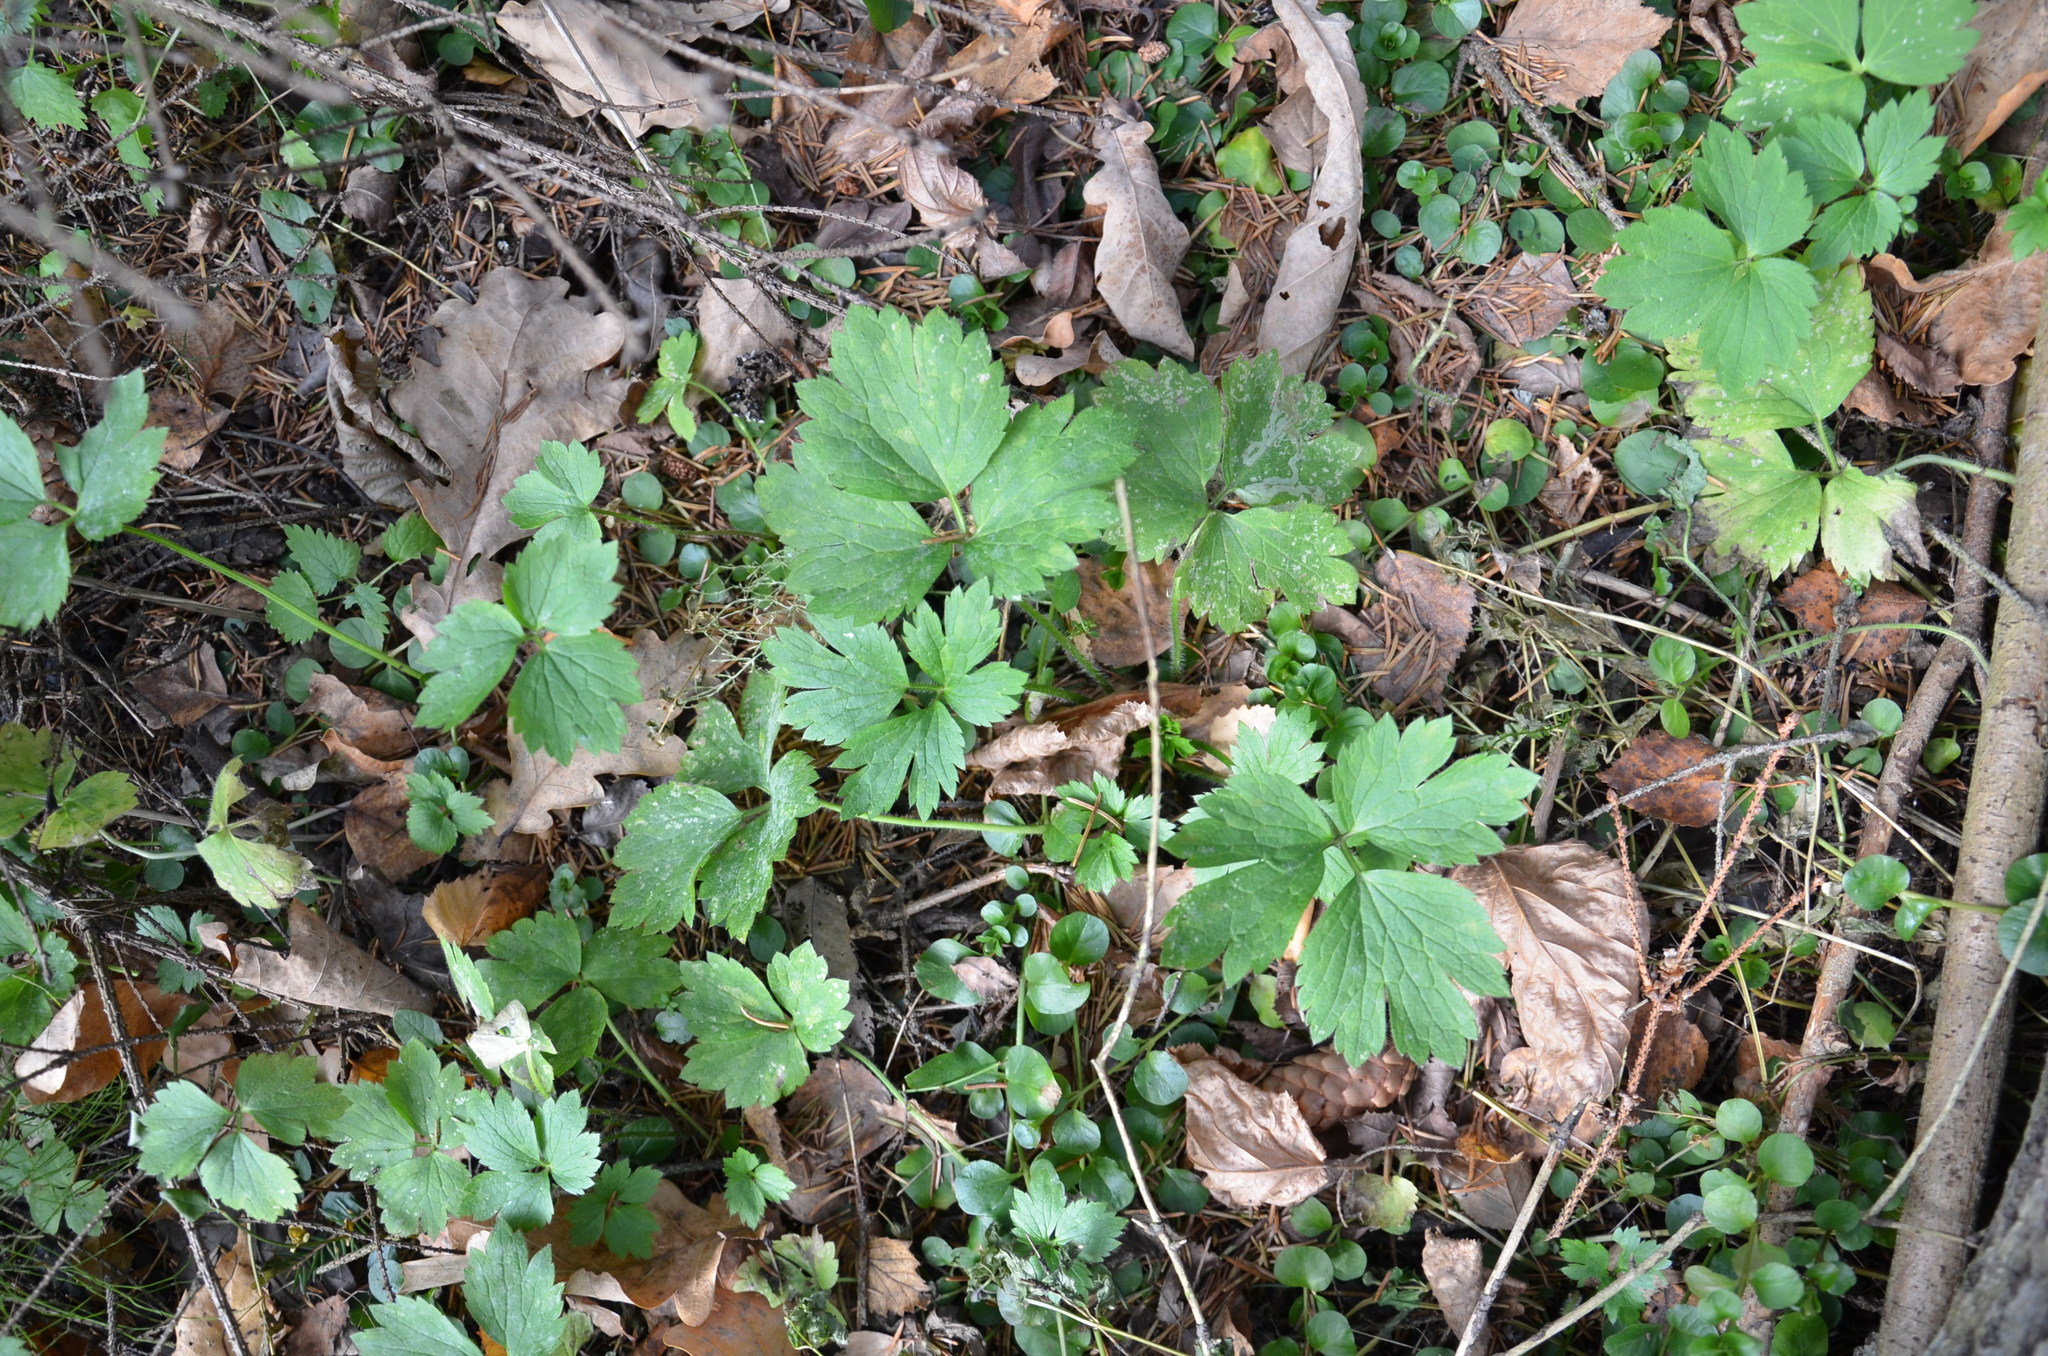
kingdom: Plantae
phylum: Tracheophyta
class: Magnoliopsida
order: Ranunculales
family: Ranunculaceae
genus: Ranunculus
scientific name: Ranunculus repens
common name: Creeping buttercup
